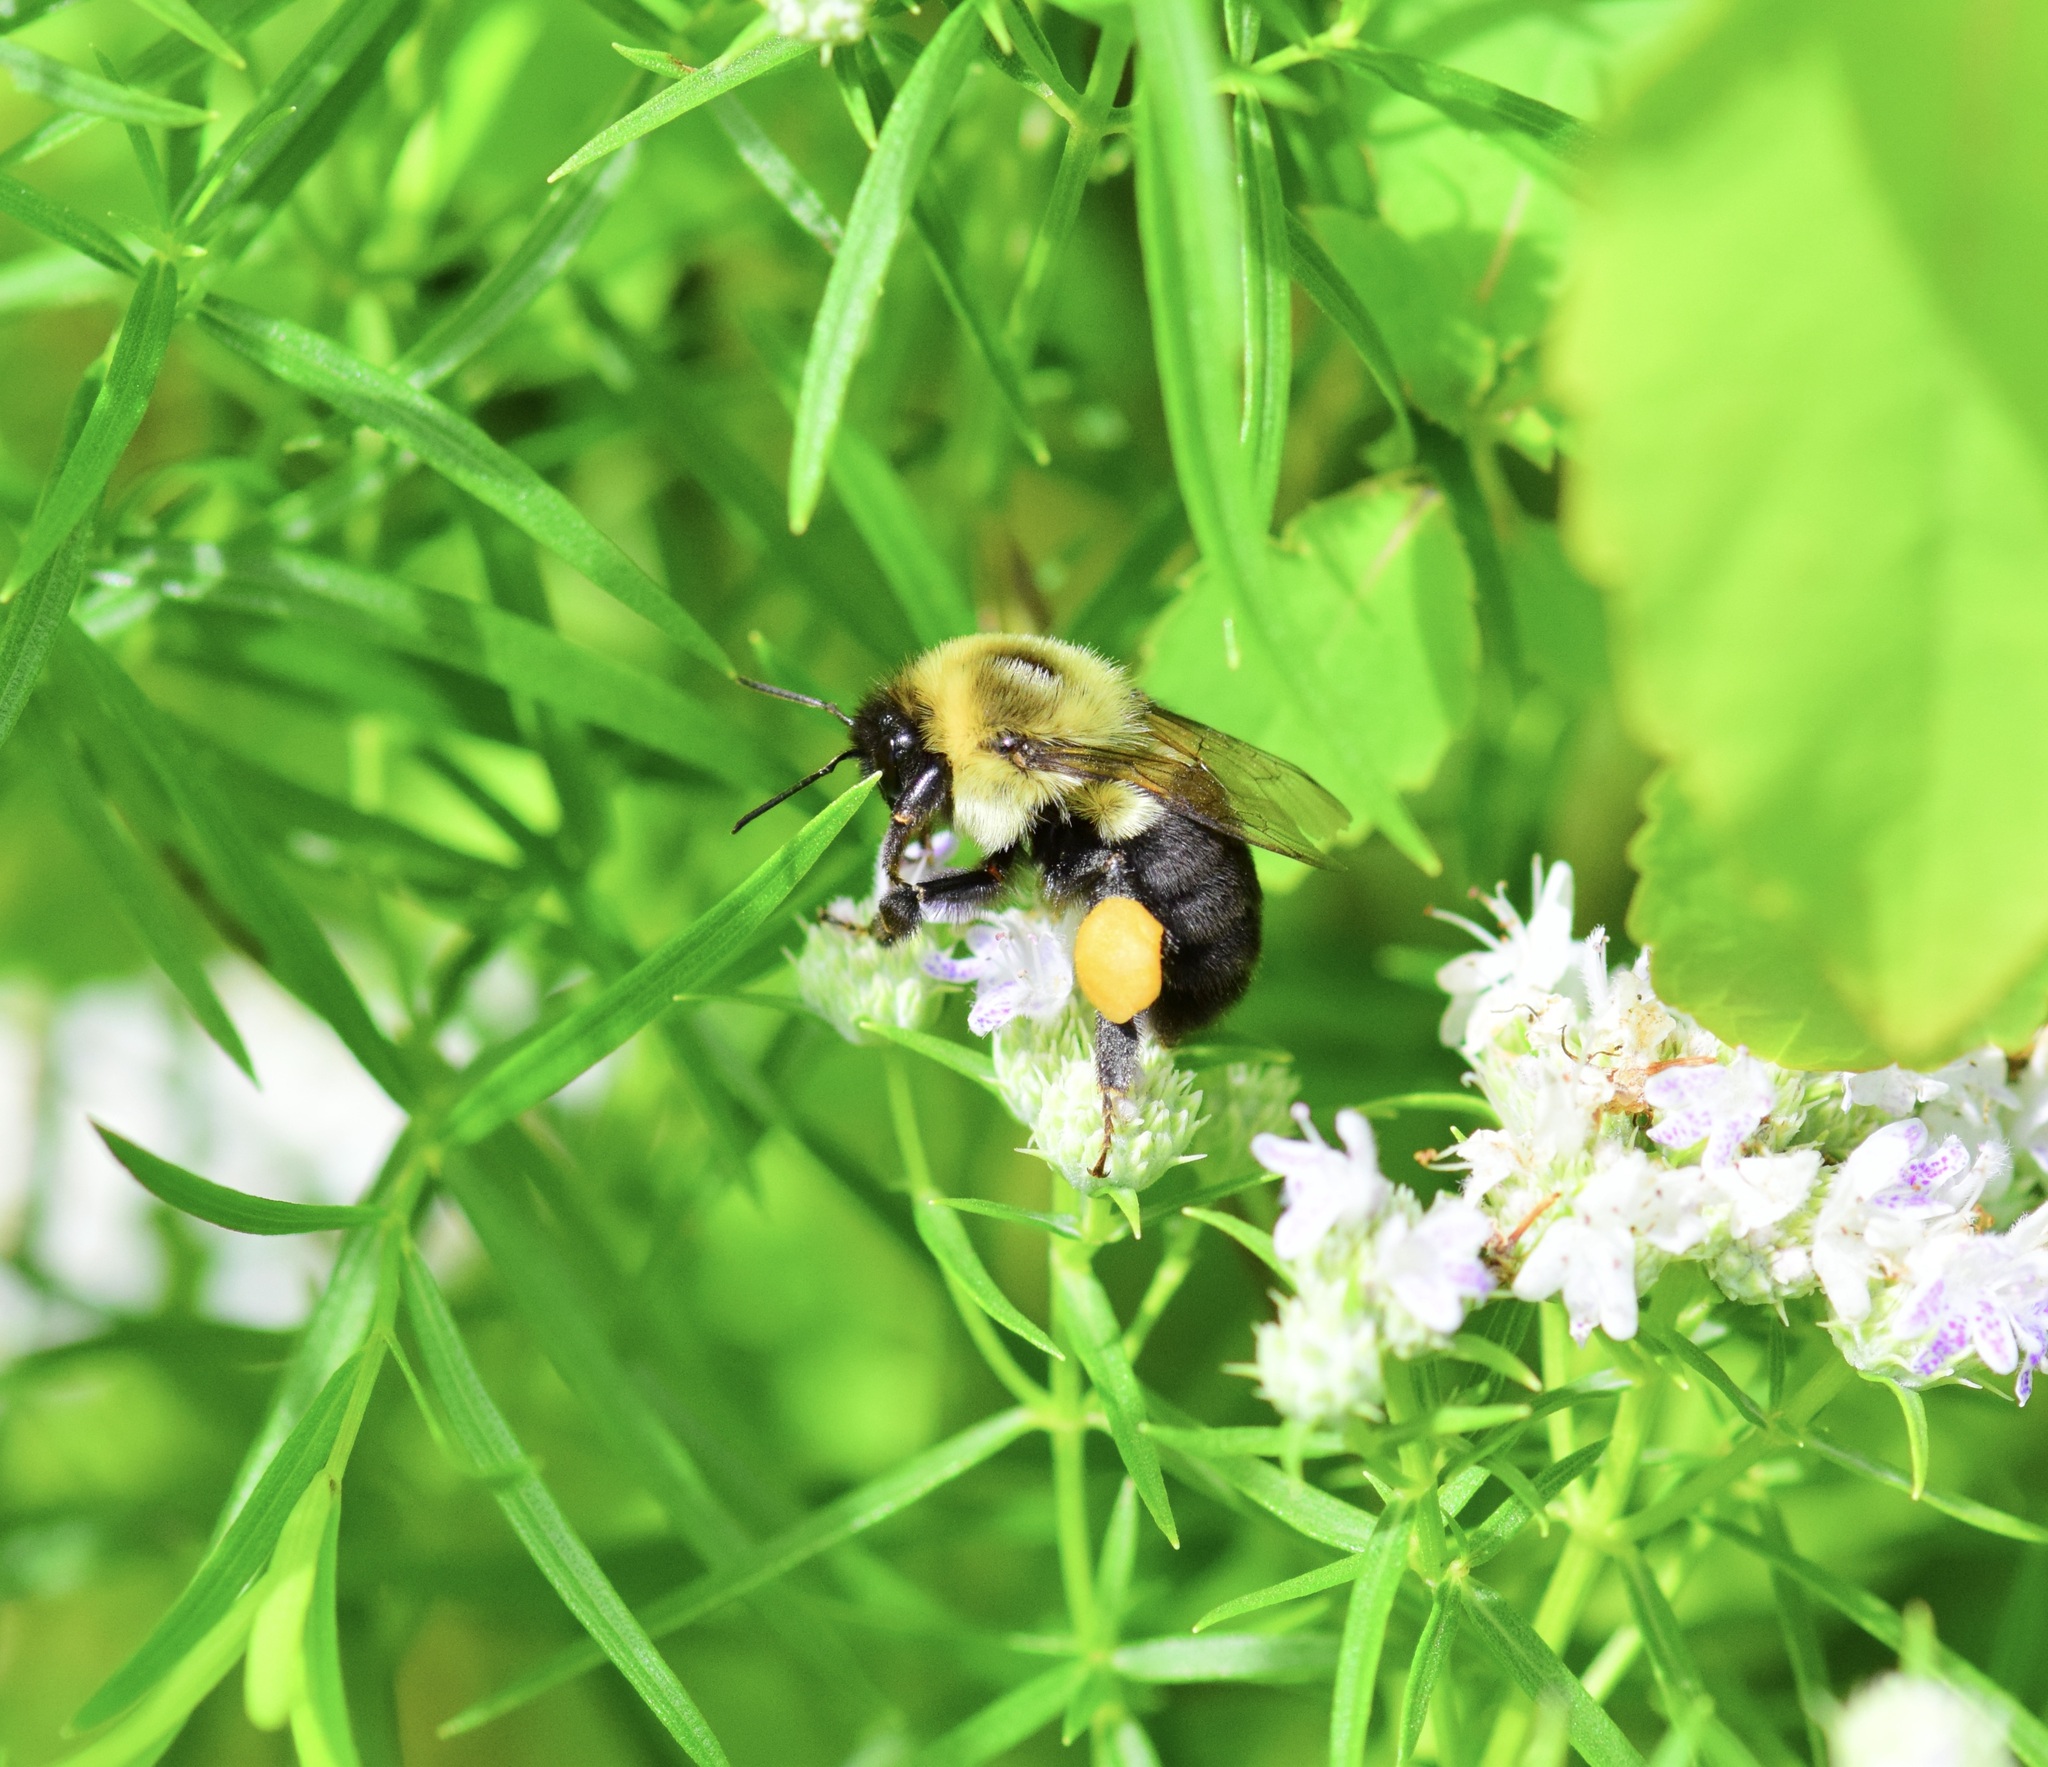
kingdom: Animalia
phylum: Arthropoda
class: Insecta
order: Hymenoptera
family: Apidae
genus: Bombus
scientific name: Bombus impatiens
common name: Common eastern bumble bee
